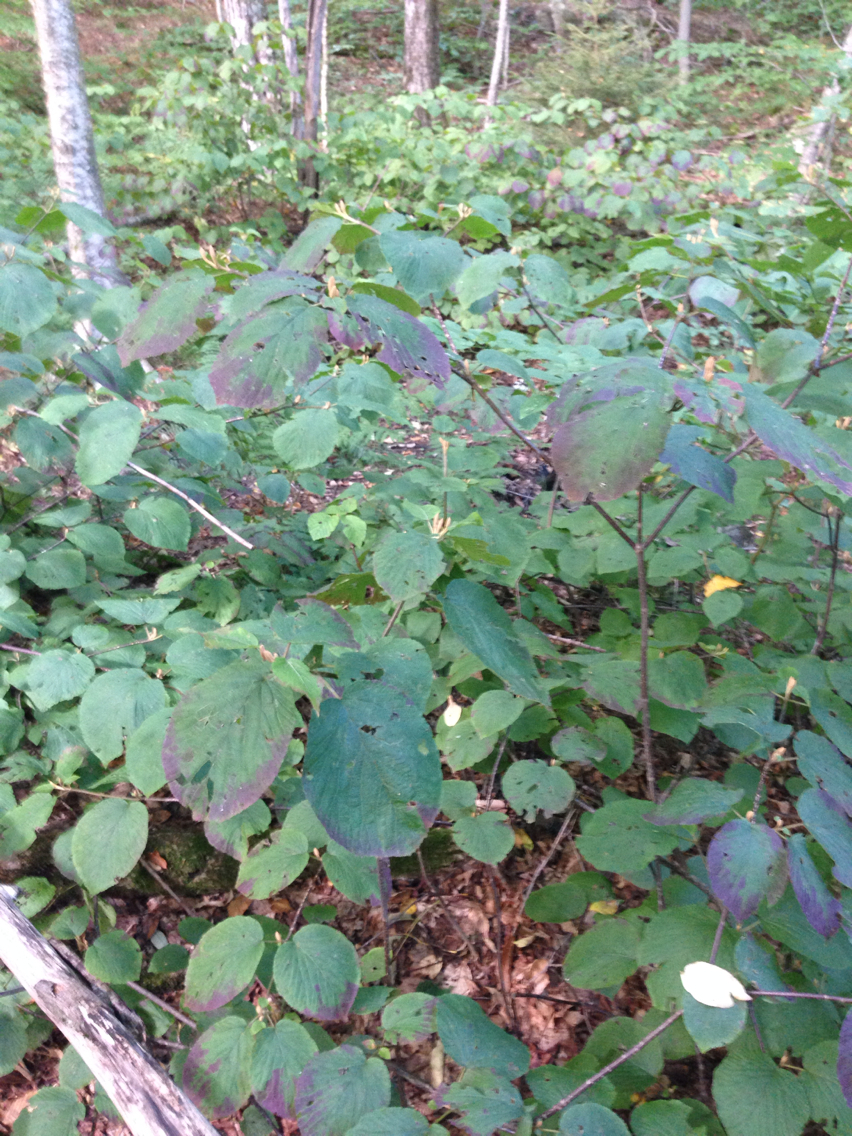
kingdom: Plantae
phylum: Tracheophyta
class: Magnoliopsida
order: Dipsacales
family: Viburnaceae
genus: Viburnum
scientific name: Viburnum lantanoides
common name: Hobblebush
